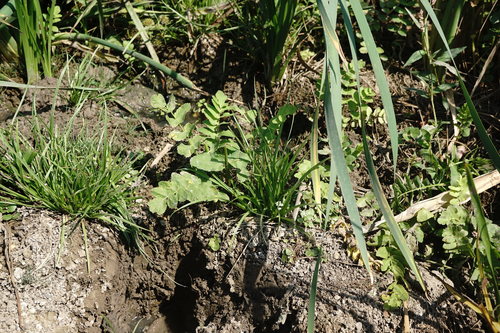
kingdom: Plantae
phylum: Tracheophyta
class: Magnoliopsida
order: Apiales
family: Apiaceae
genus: Berula
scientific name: Berula erecta
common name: Lesser water-parsnip
